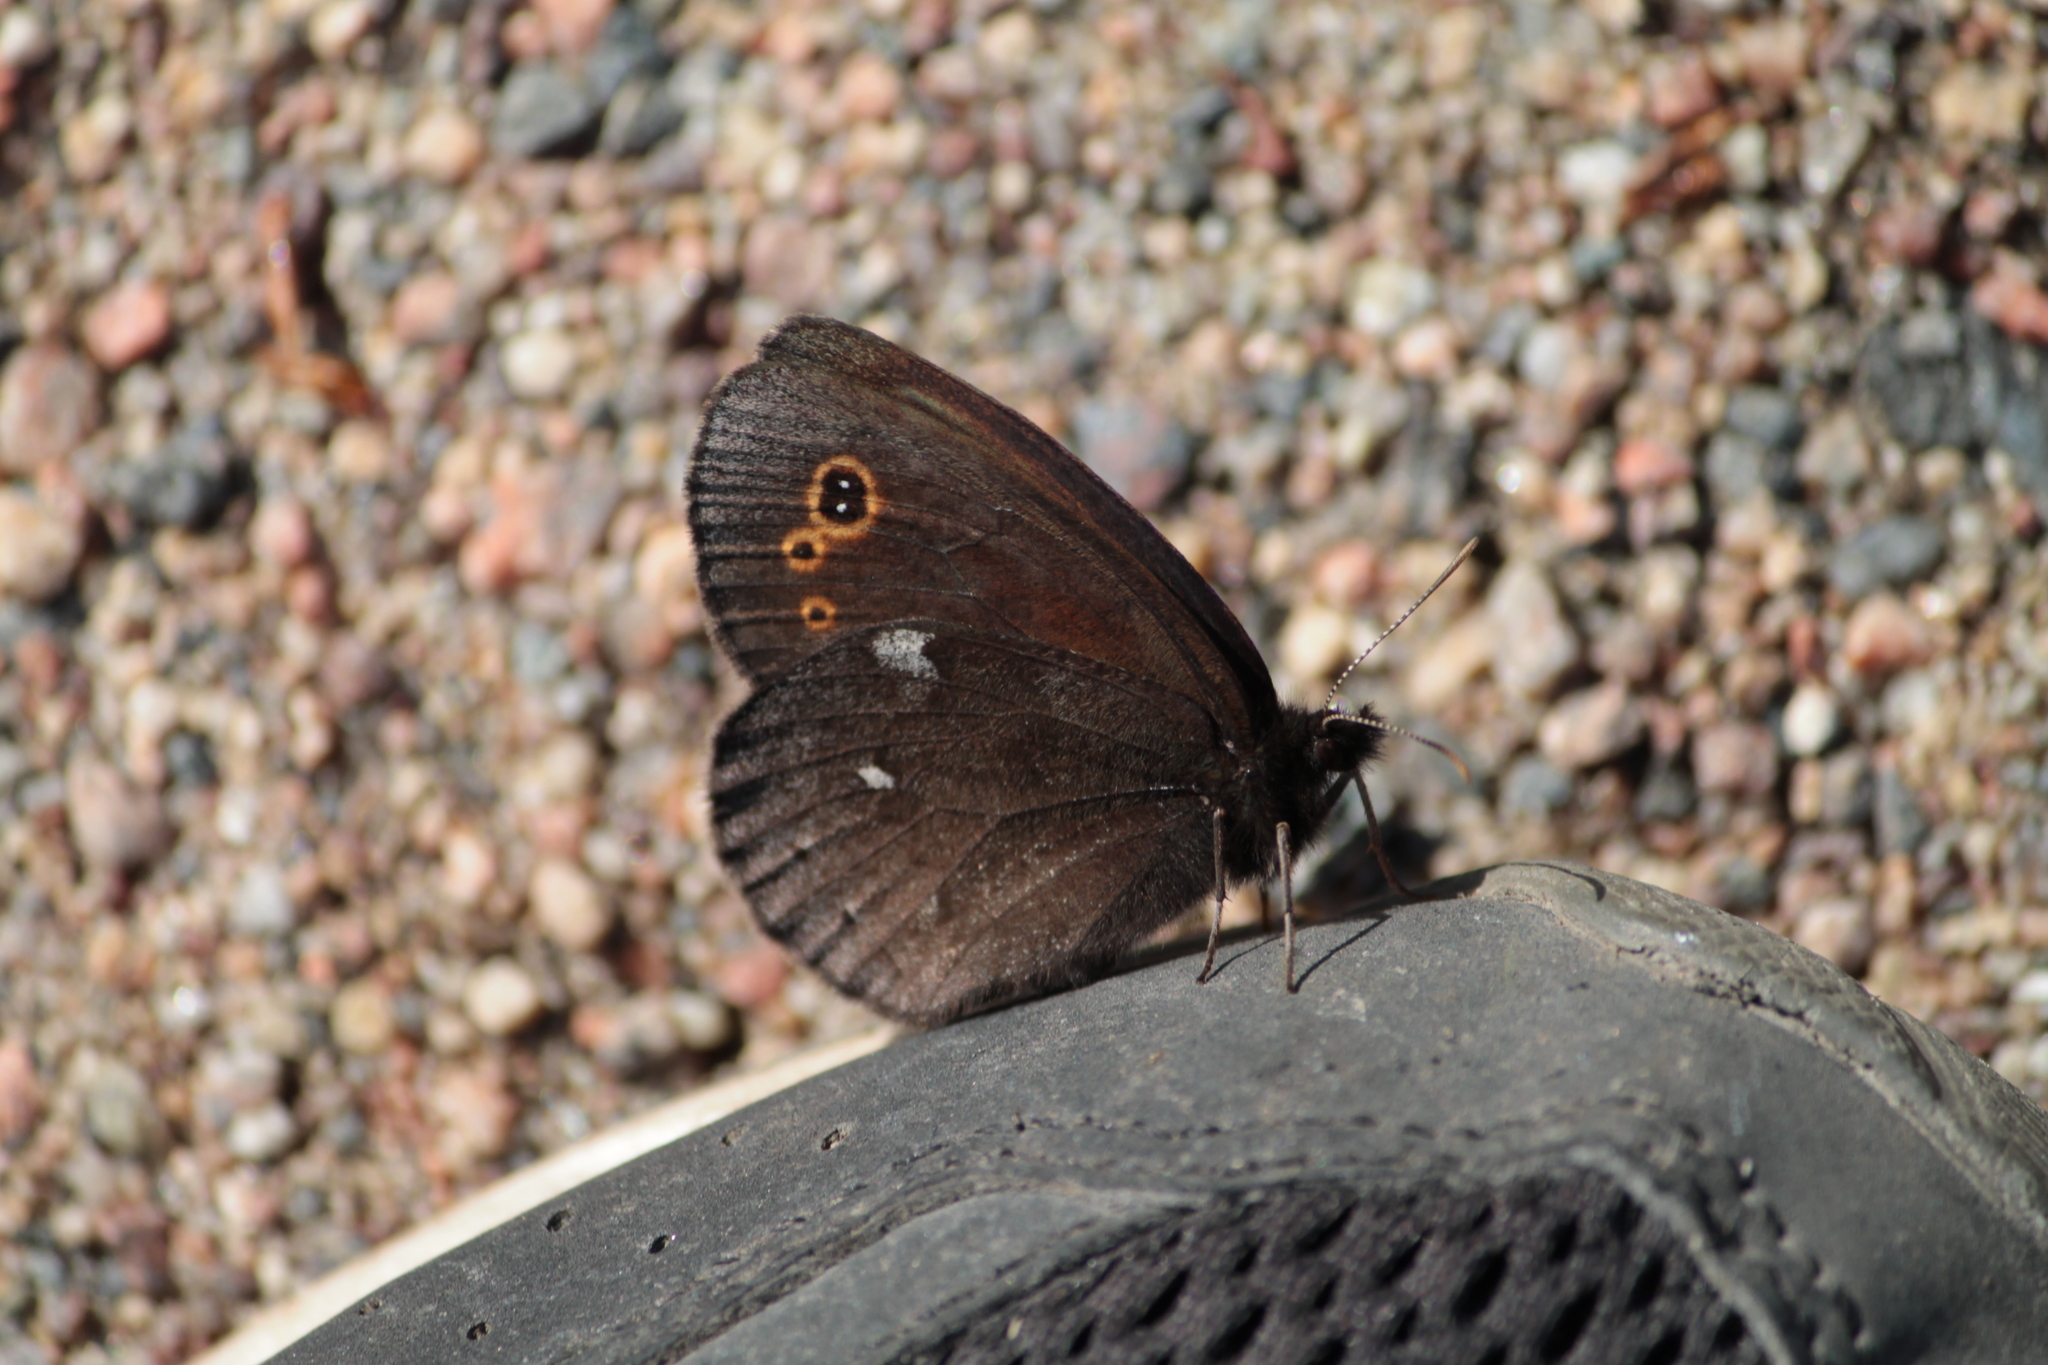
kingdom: Animalia
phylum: Arthropoda
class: Insecta
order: Lepidoptera
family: Nymphalidae
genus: Erebia
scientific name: Erebia embla
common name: Lapland ringlet
